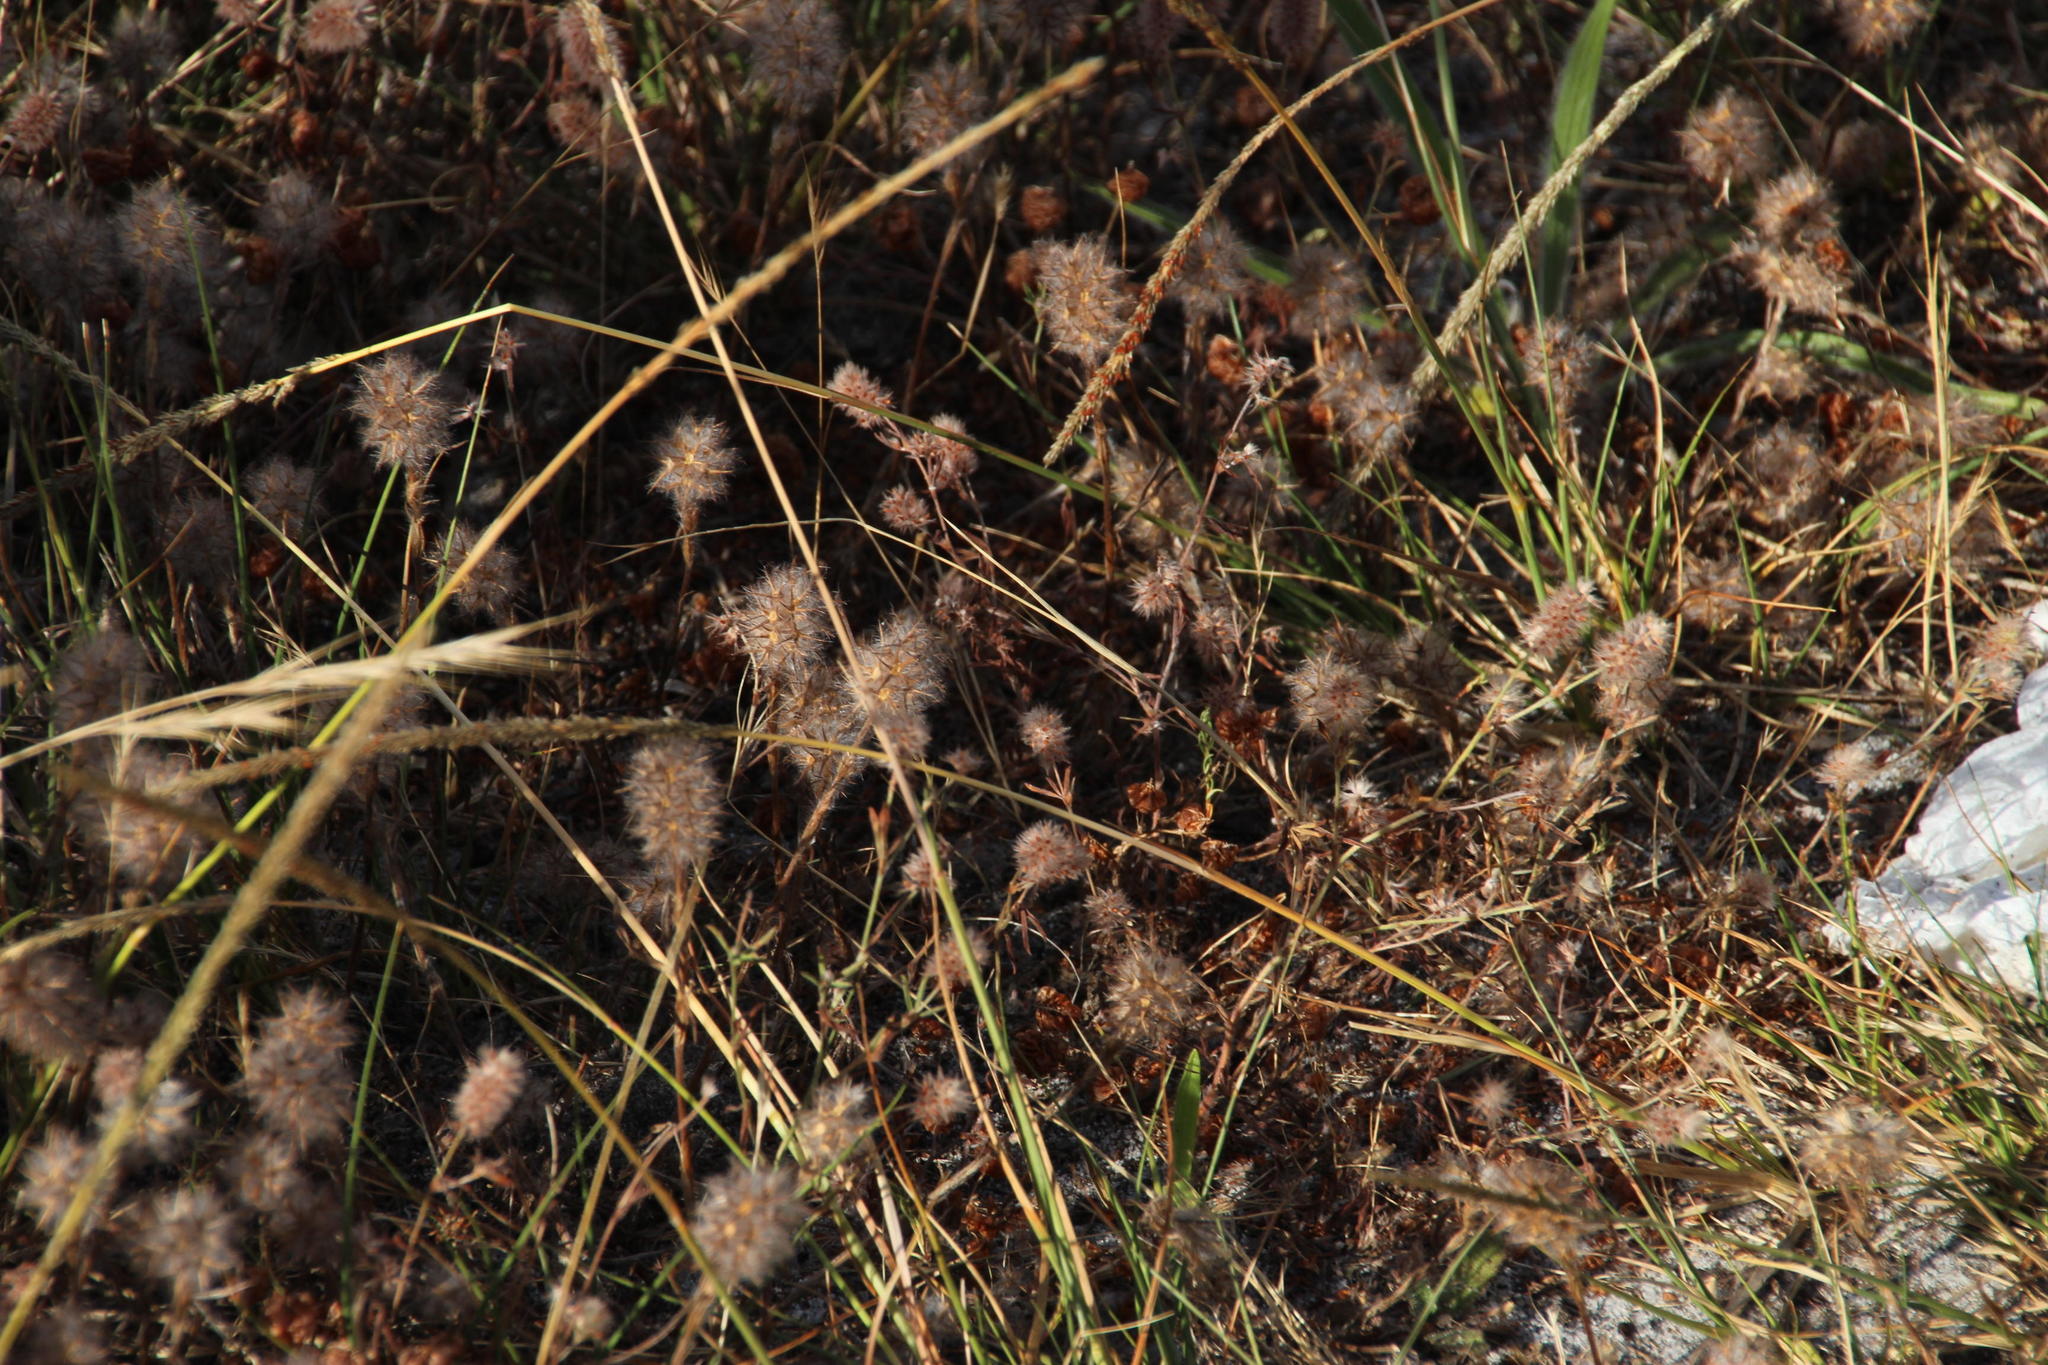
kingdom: Plantae
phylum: Tracheophyta
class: Magnoliopsida
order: Fabales
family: Fabaceae
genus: Trifolium
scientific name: Trifolium arvense
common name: Hare's-foot clover
